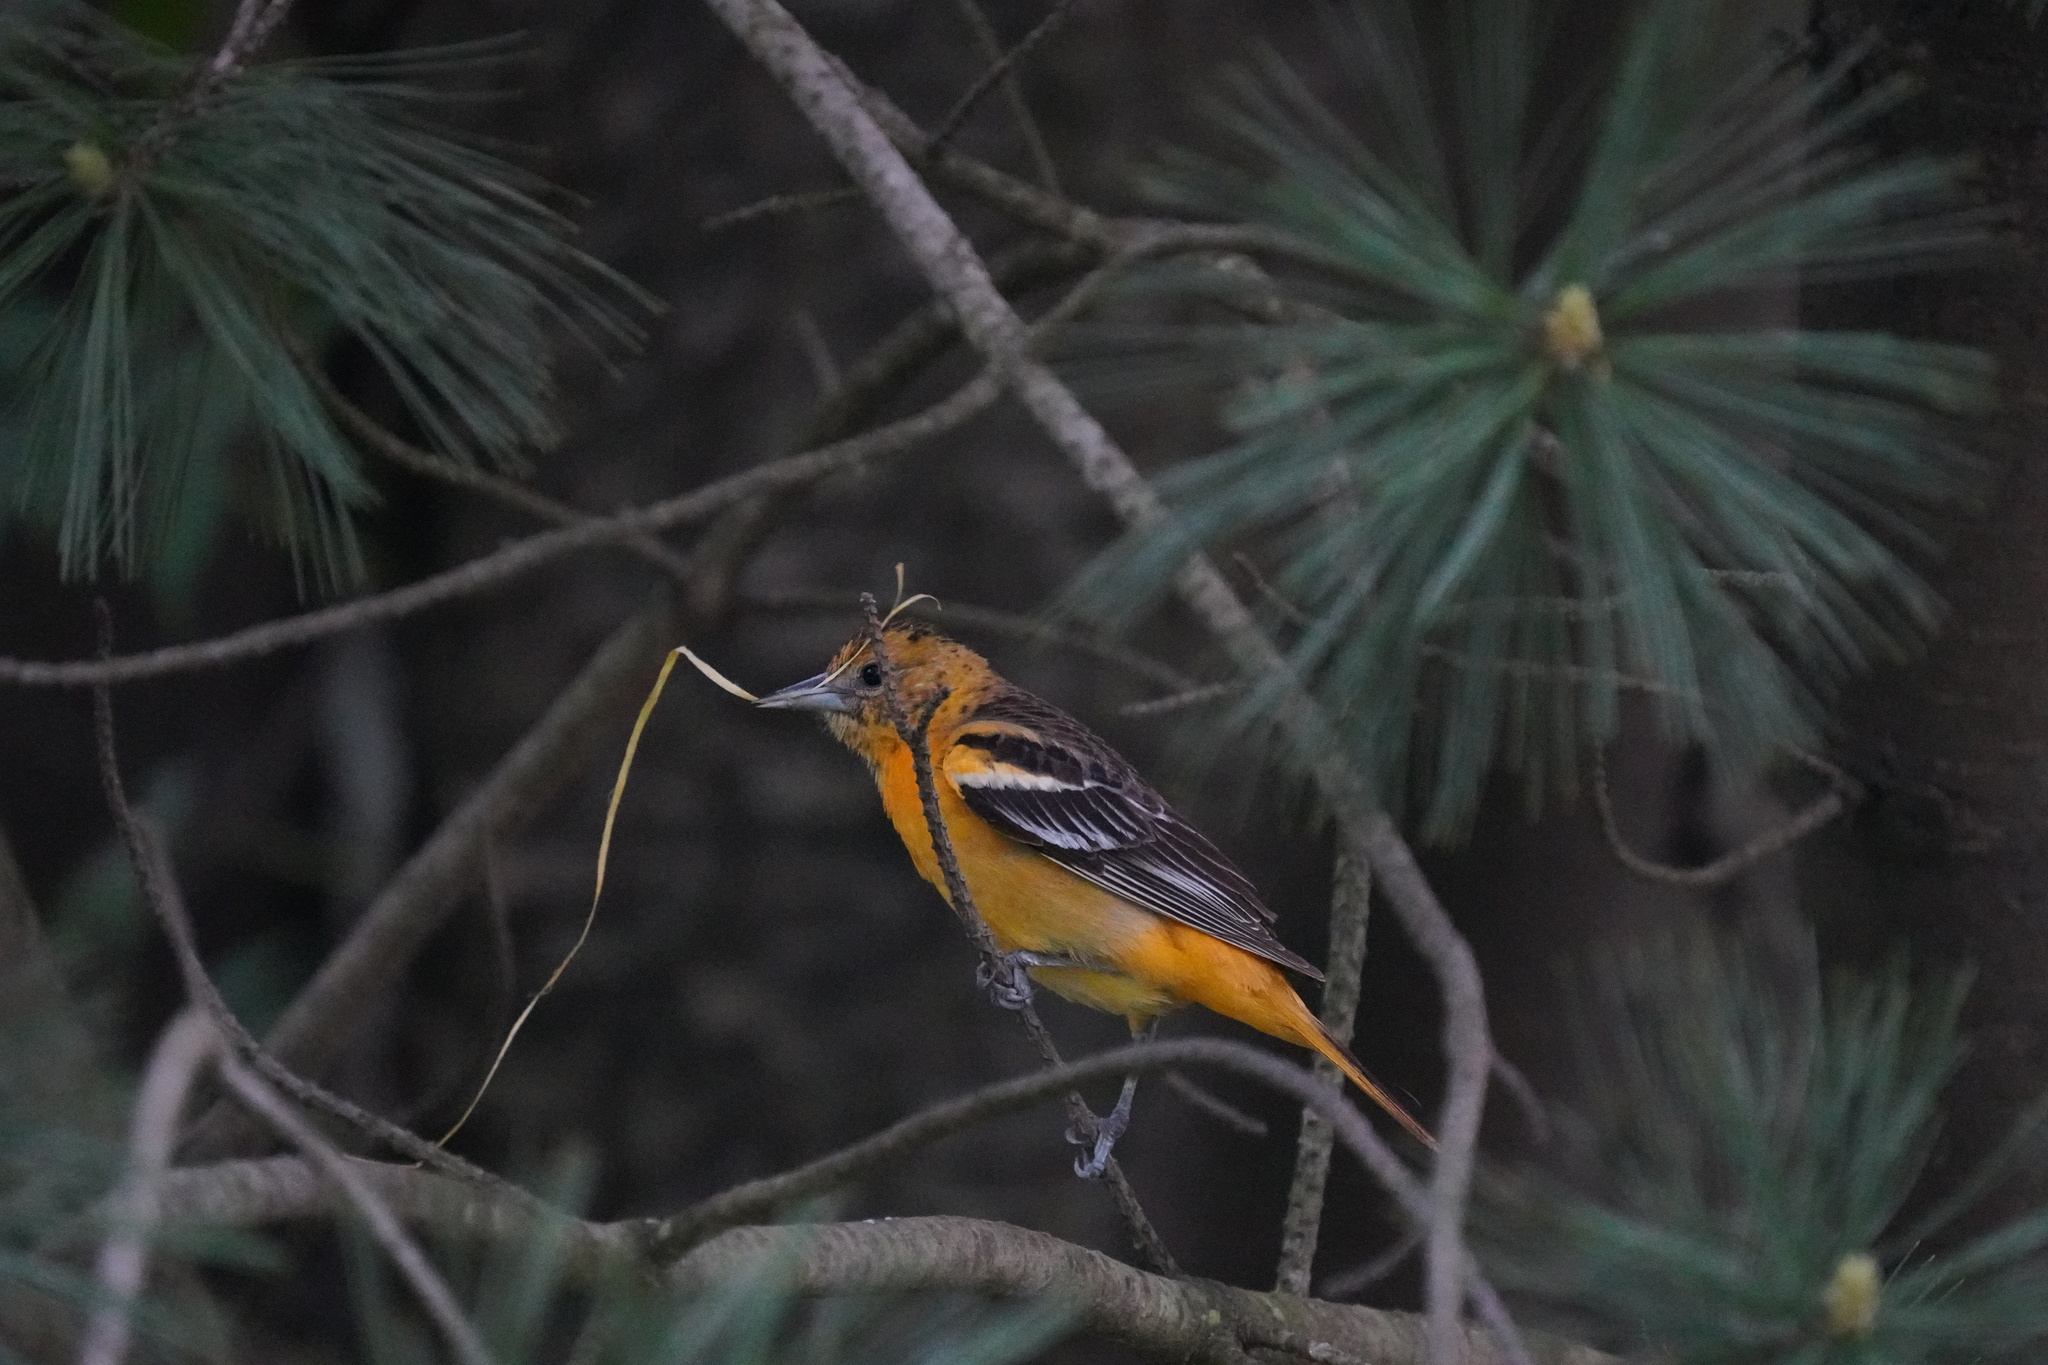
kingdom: Animalia
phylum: Chordata
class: Aves
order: Passeriformes
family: Icteridae
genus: Icterus
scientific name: Icterus galbula
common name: Baltimore oriole
